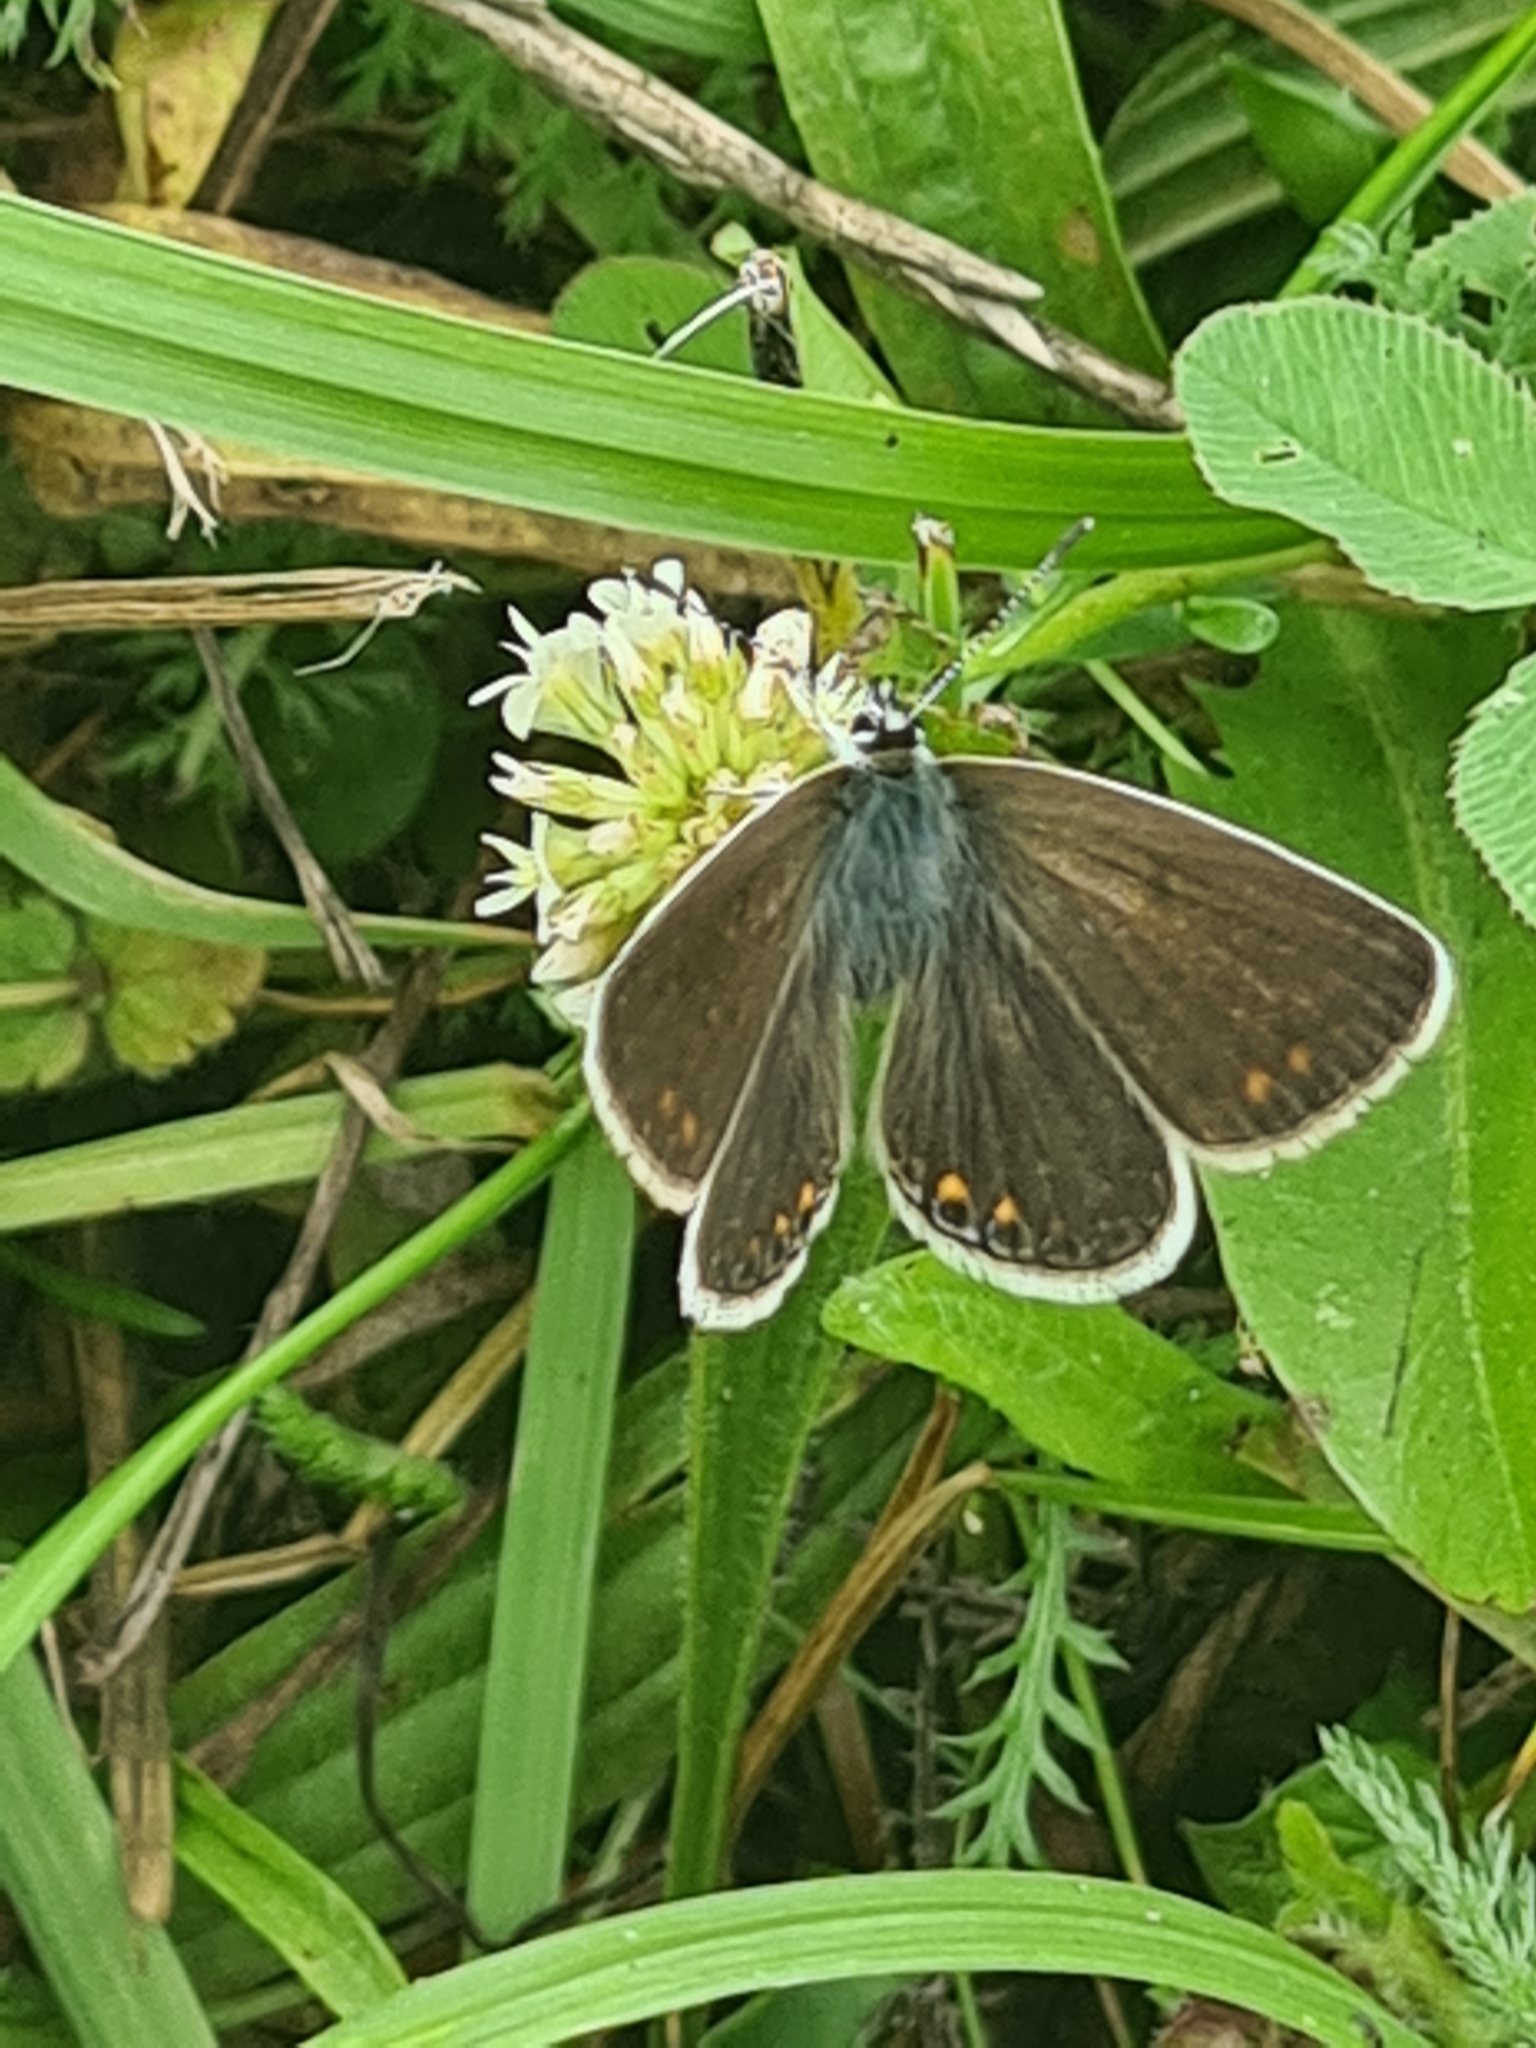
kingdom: Animalia
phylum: Arthropoda
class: Insecta
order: Lepidoptera
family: Lycaenidae
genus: Polyommatus
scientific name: Polyommatus icarus
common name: Common blue
